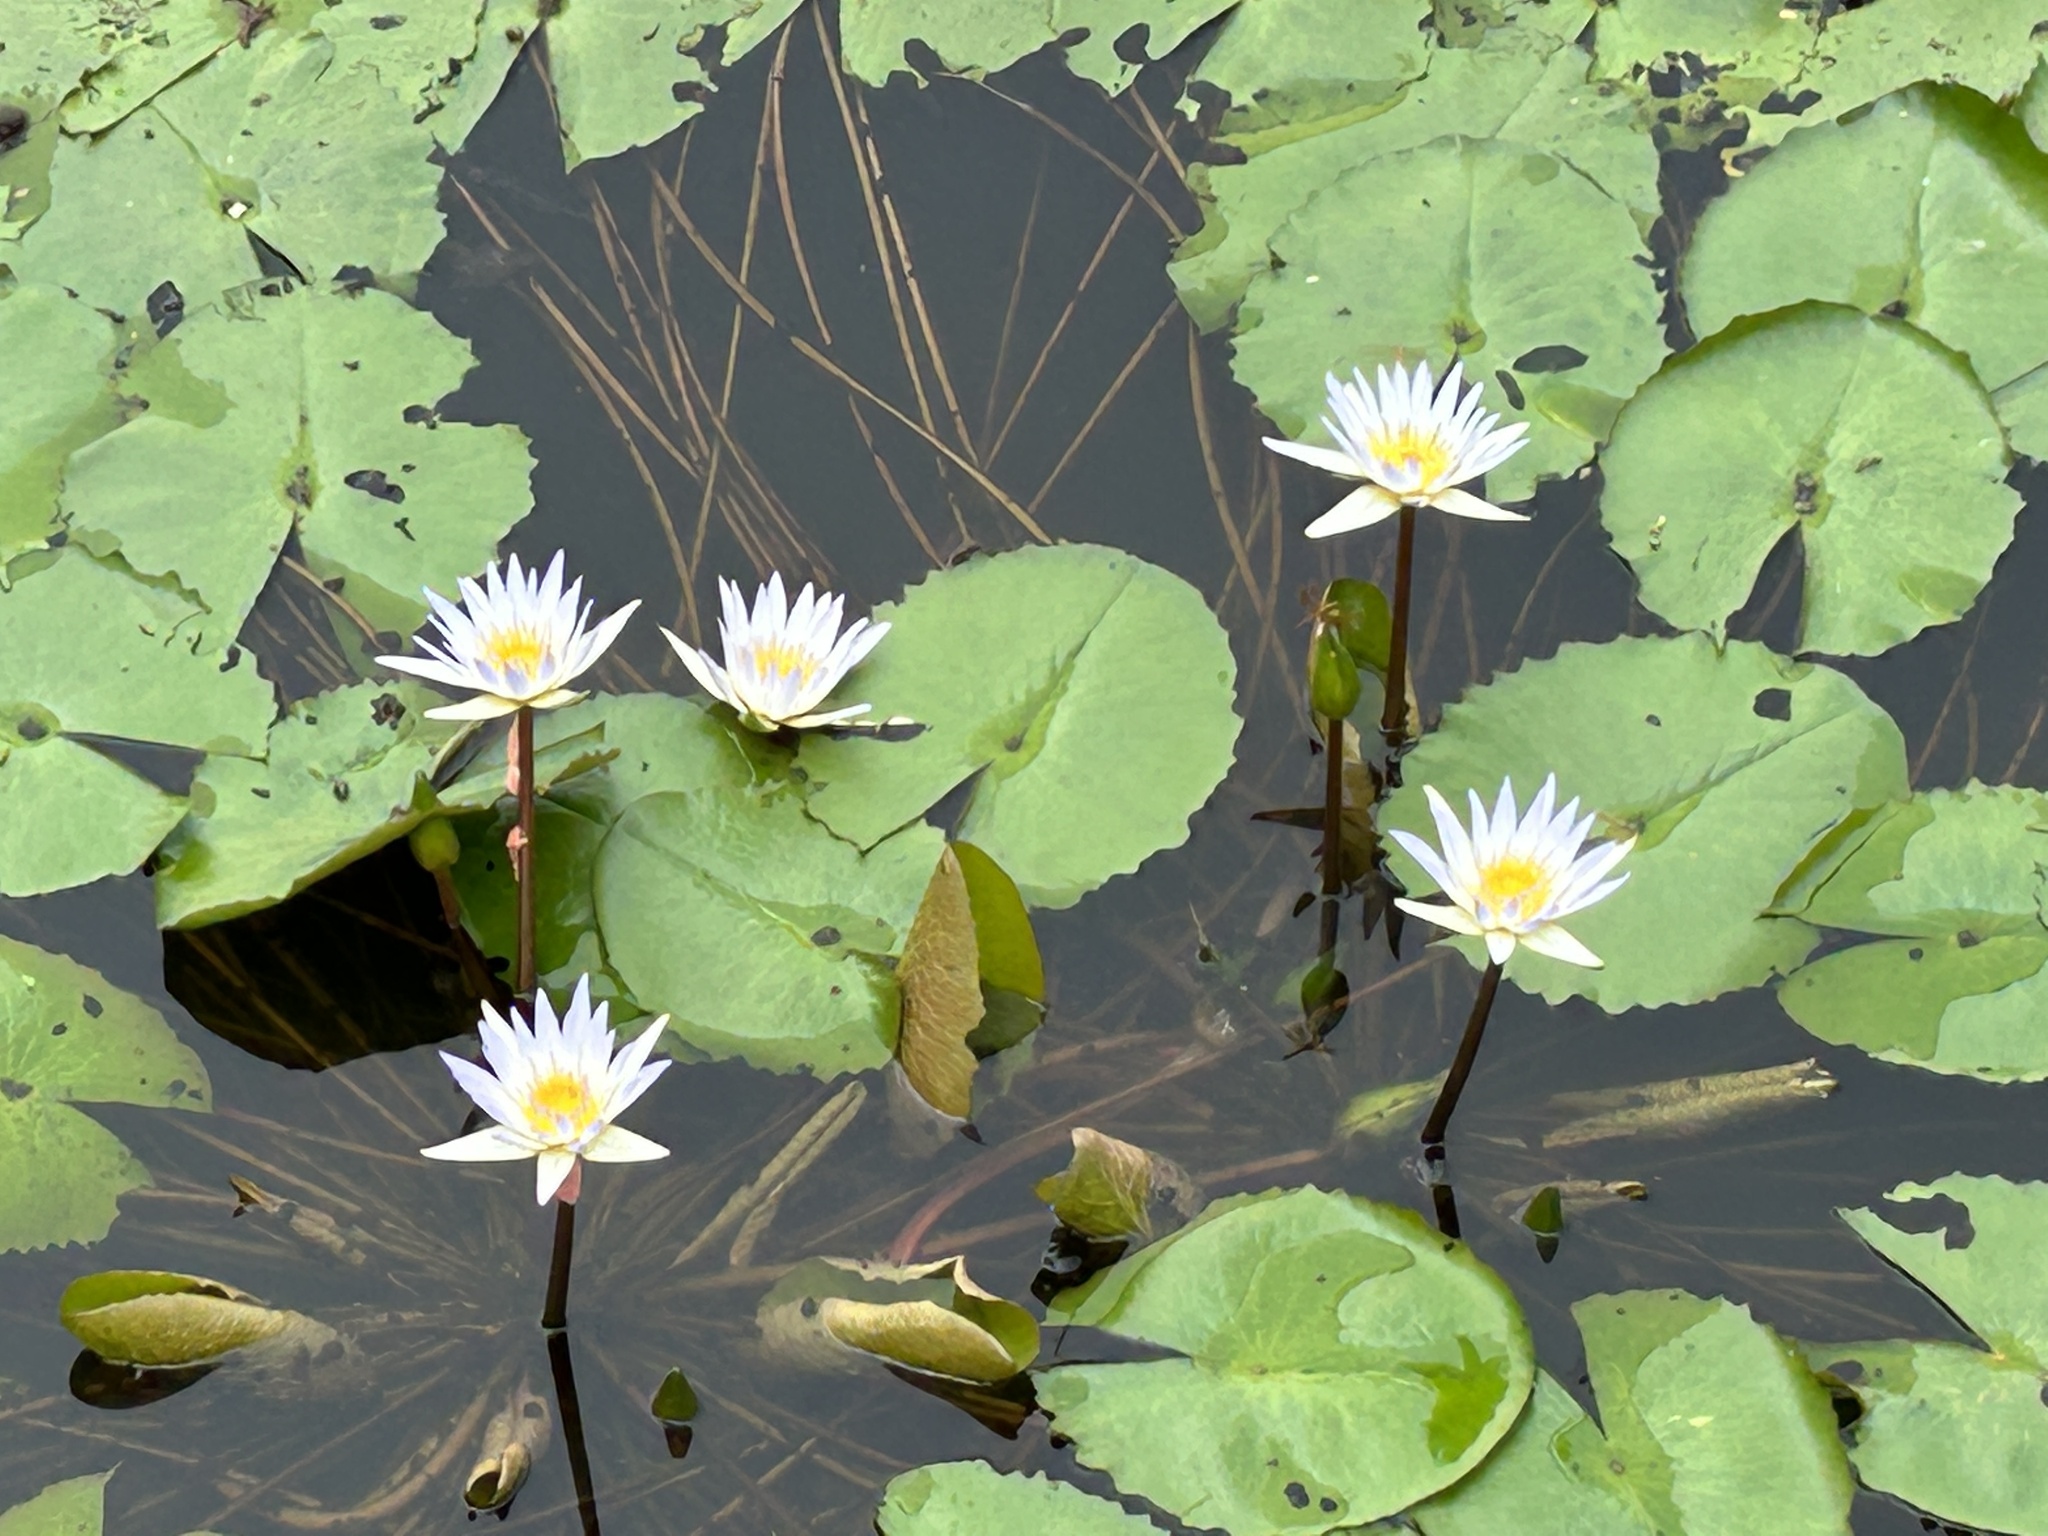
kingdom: Plantae
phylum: Tracheophyta
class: Magnoliopsida
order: Nymphaeales
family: Nymphaeaceae
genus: Nymphaea
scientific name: Nymphaea nouchali
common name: Blue lotus
